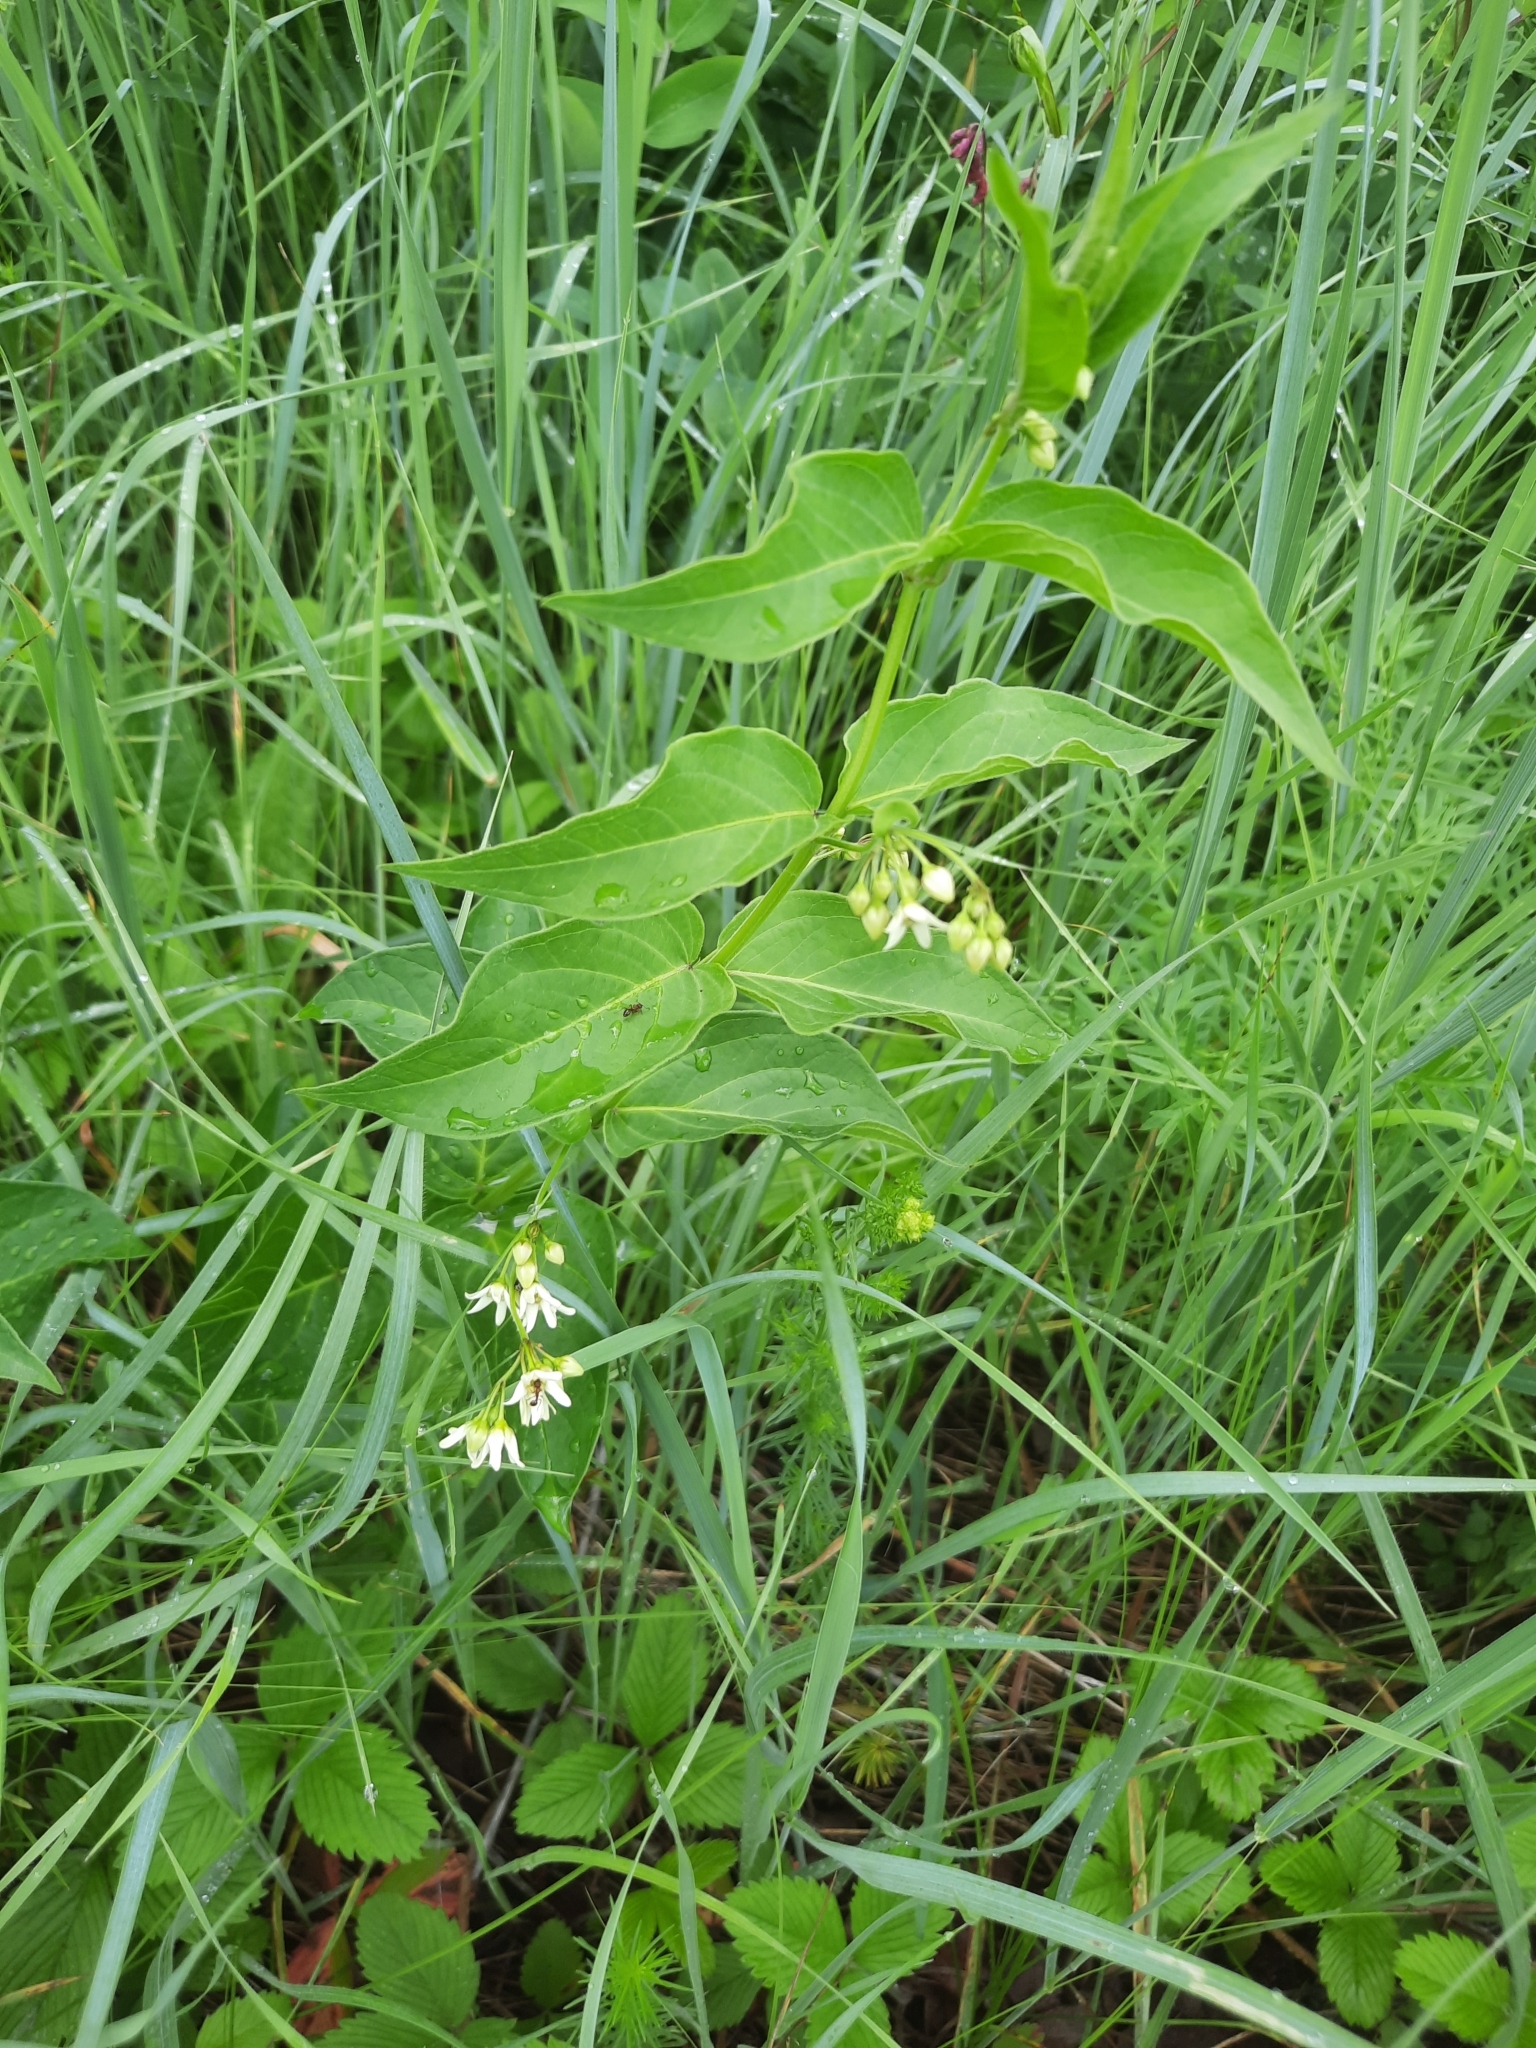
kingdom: Plantae
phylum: Tracheophyta
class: Magnoliopsida
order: Gentianales
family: Apocynaceae
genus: Vincetoxicum
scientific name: Vincetoxicum hirundinaria
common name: White swallowwort
